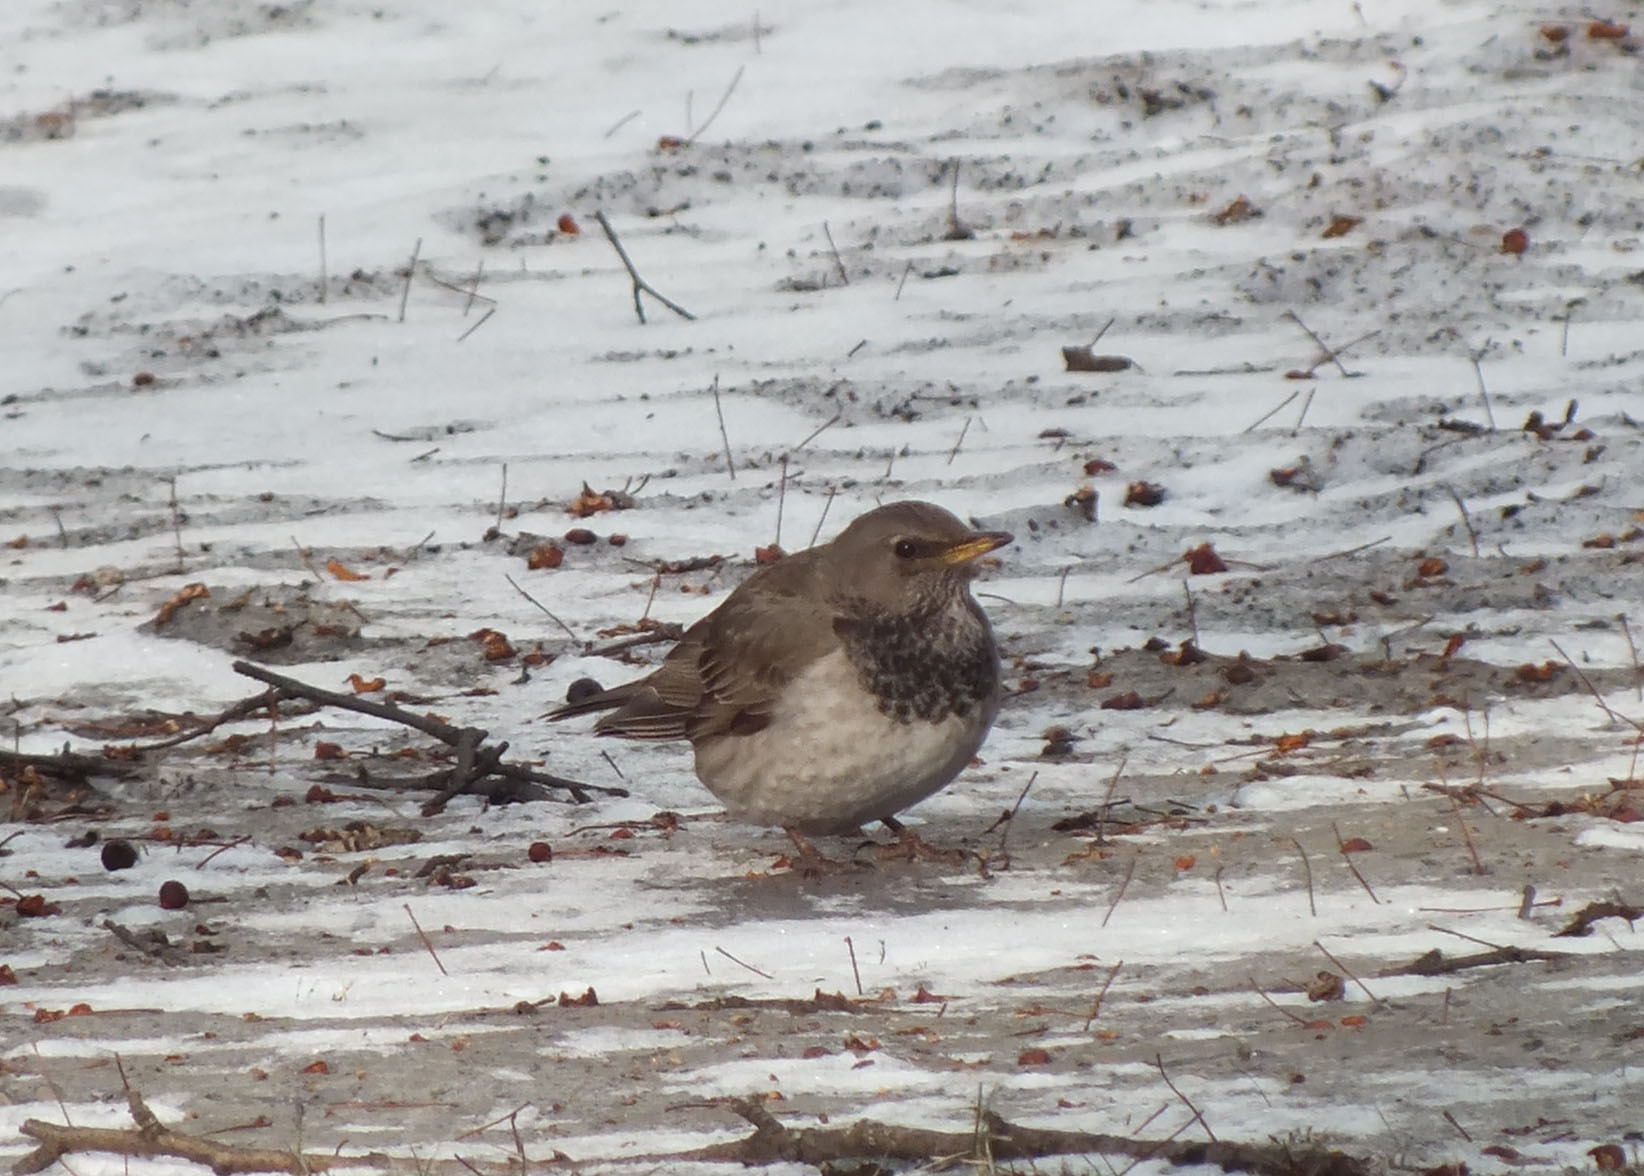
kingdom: Animalia
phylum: Chordata
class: Aves
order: Passeriformes
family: Turdidae
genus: Turdus
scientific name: Turdus atrogularis
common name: Black-throated thrush
